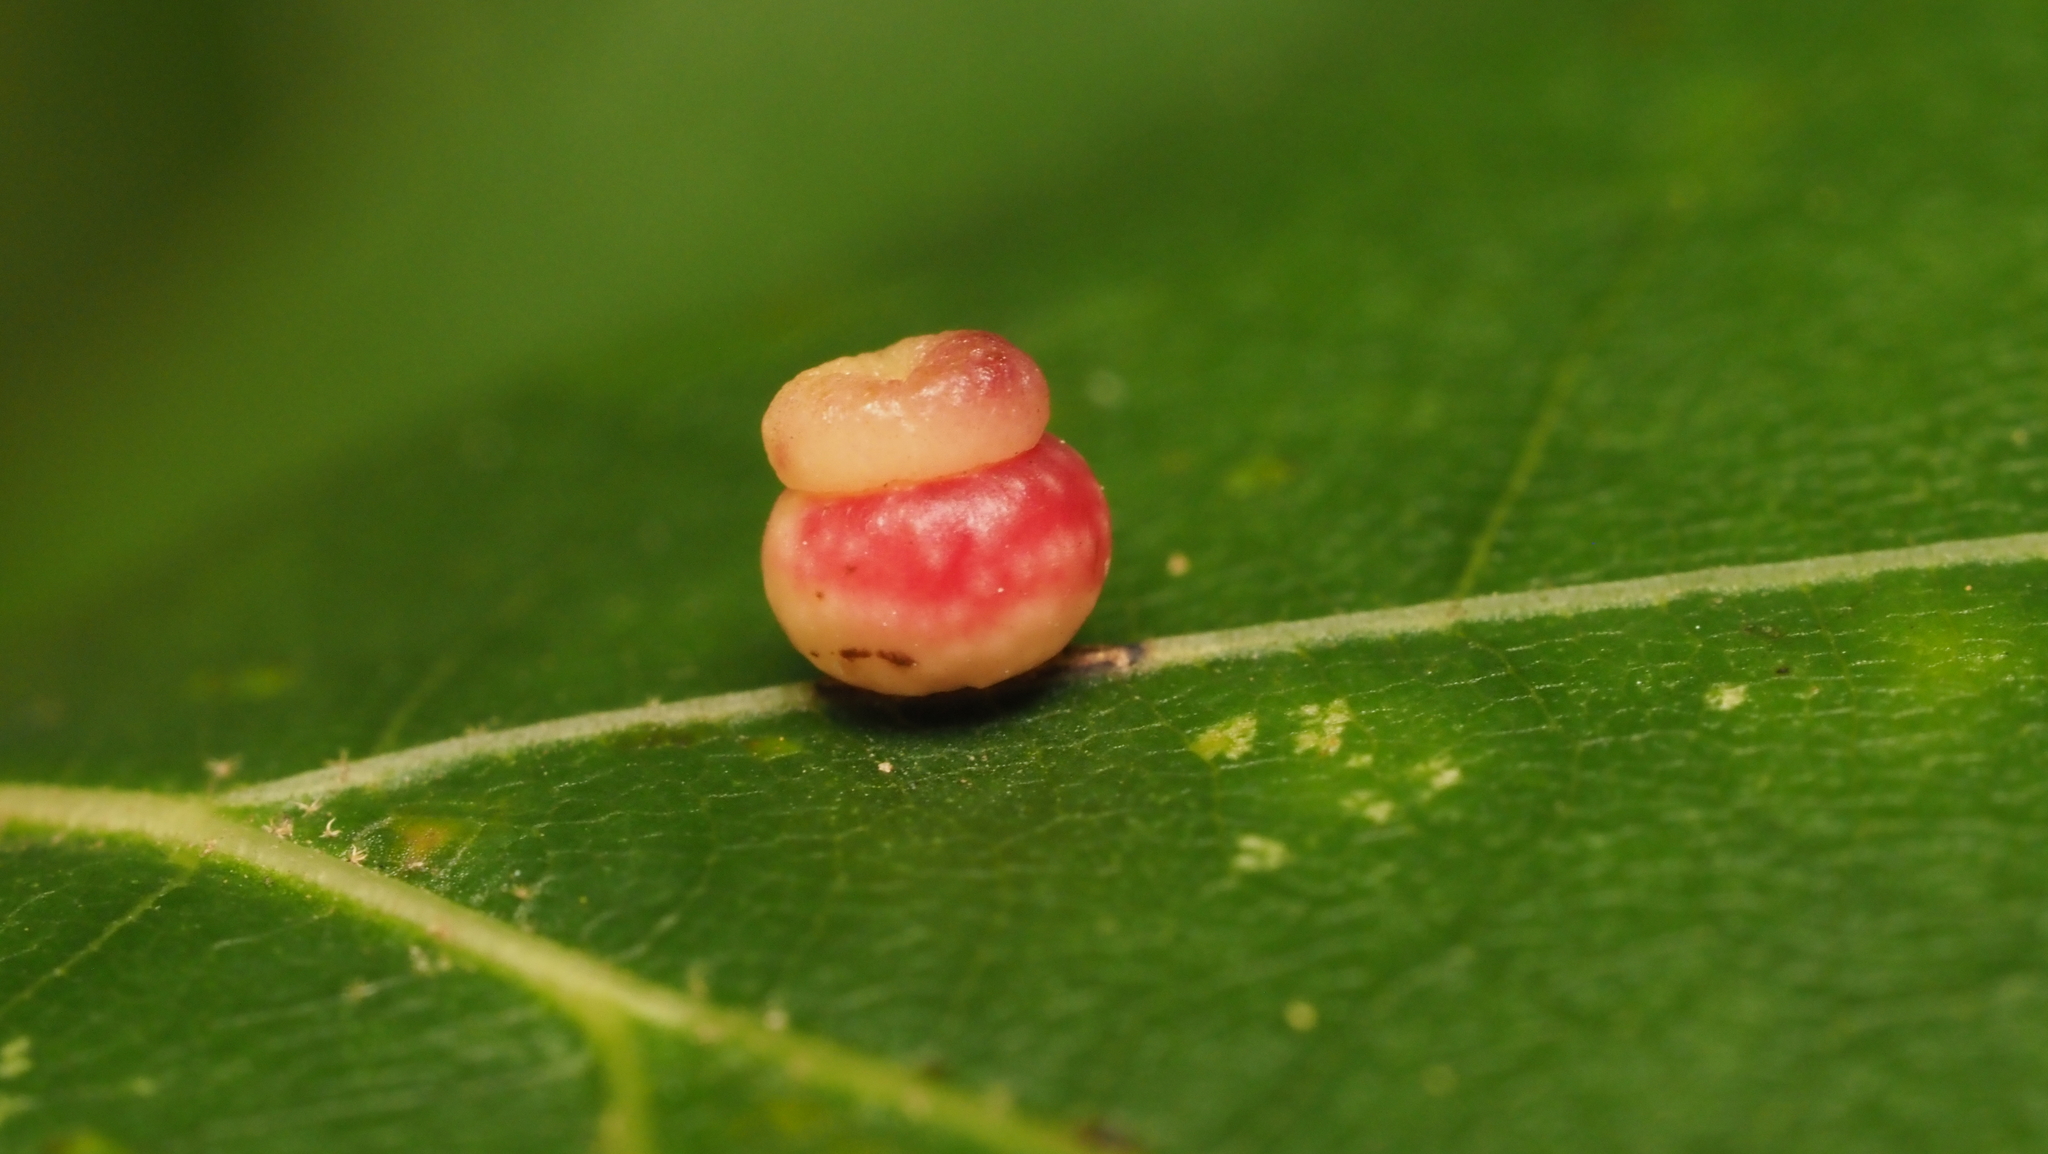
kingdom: Animalia
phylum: Arthropoda
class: Insecta
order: Hymenoptera
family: Cynipidae
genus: Kokkocynips
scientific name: Kokkocynips rileyi
